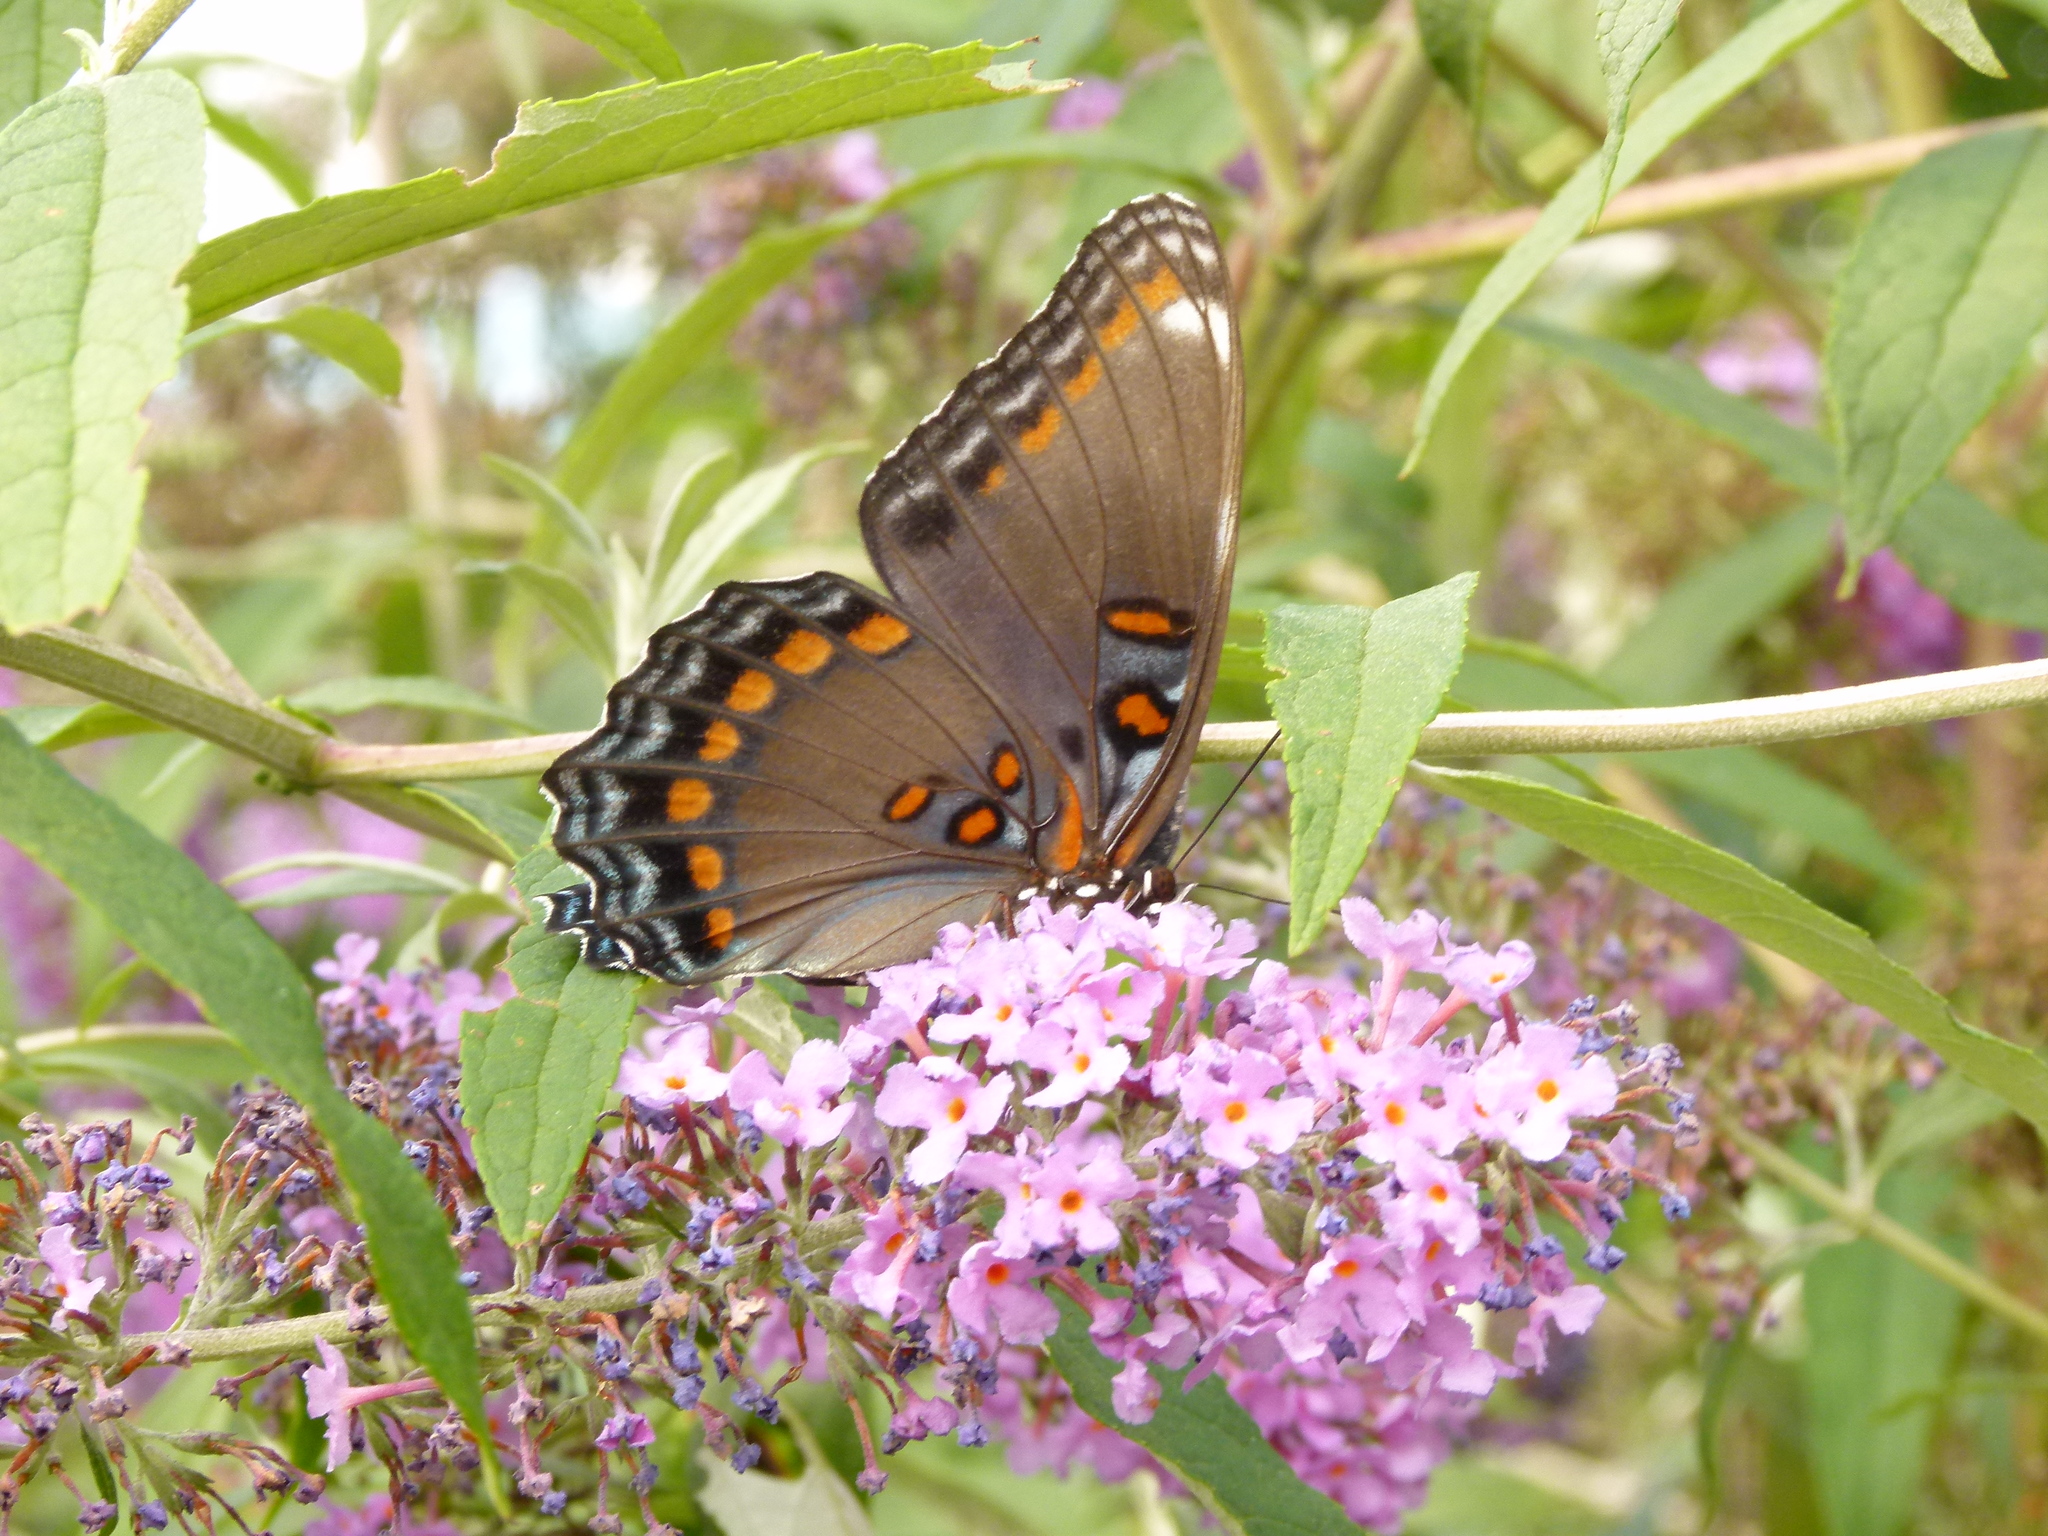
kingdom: Animalia
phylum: Arthropoda
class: Insecta
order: Lepidoptera
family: Nymphalidae
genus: Limenitis
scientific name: Limenitis astyanax
